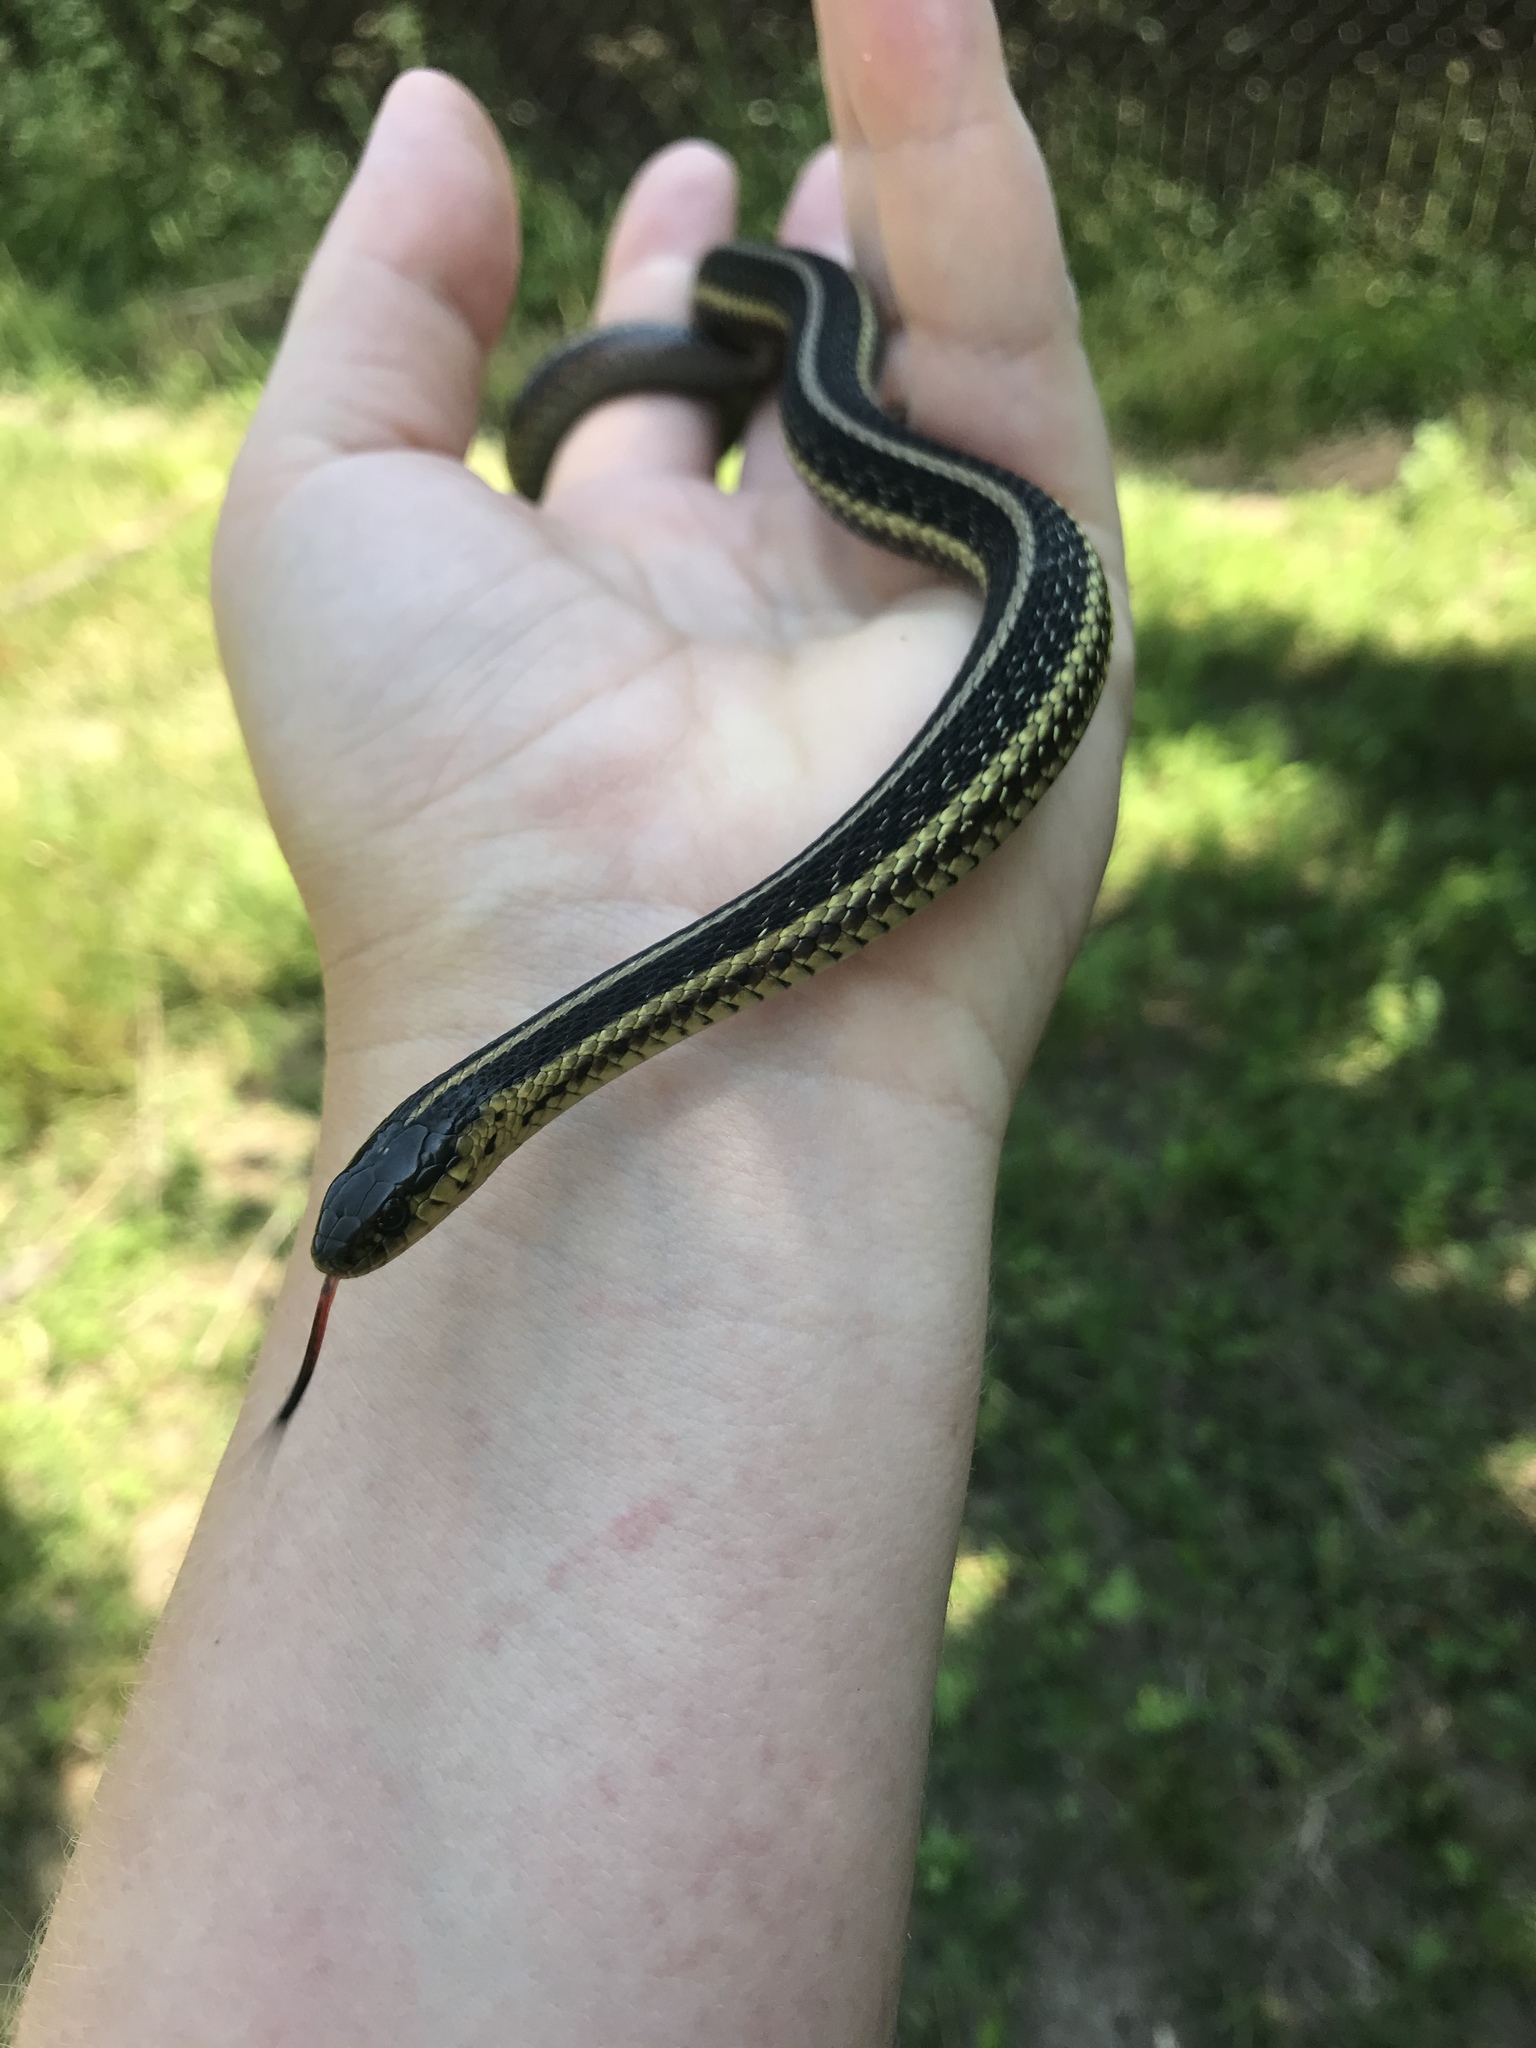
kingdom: Animalia
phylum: Chordata
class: Squamata
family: Colubridae
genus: Thamnophis
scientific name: Thamnophis butleri
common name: Butler's garter snake
